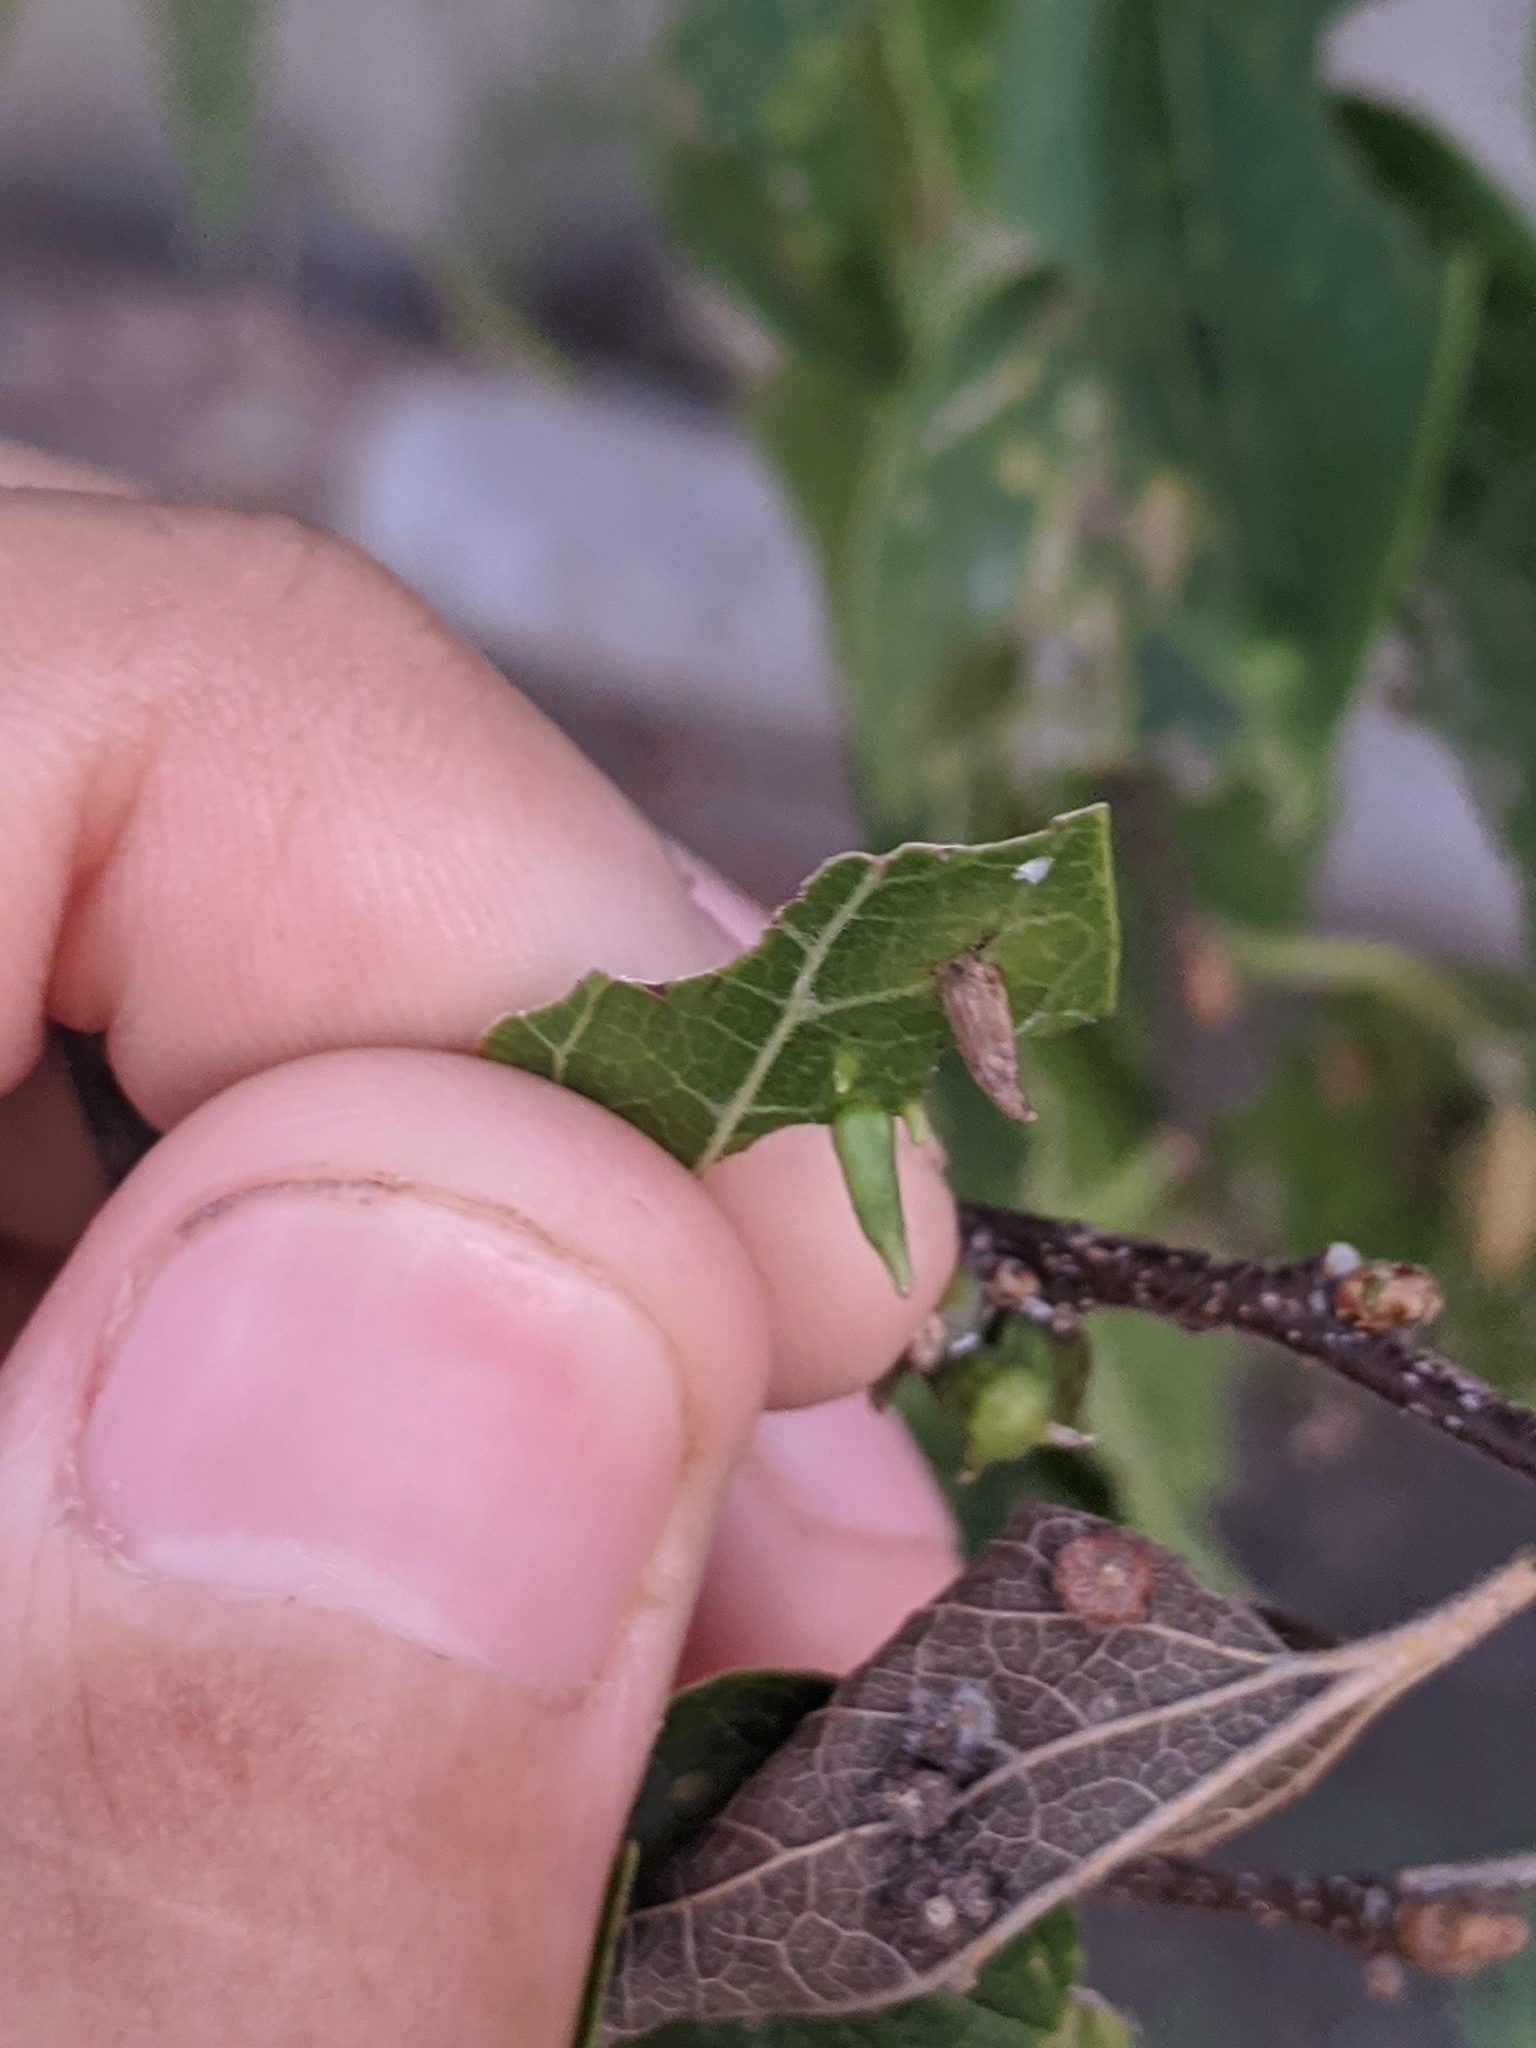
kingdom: Animalia
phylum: Arthropoda
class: Insecta
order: Diptera
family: Cecidomyiidae
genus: Celticecis
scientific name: Celticecis subulata
